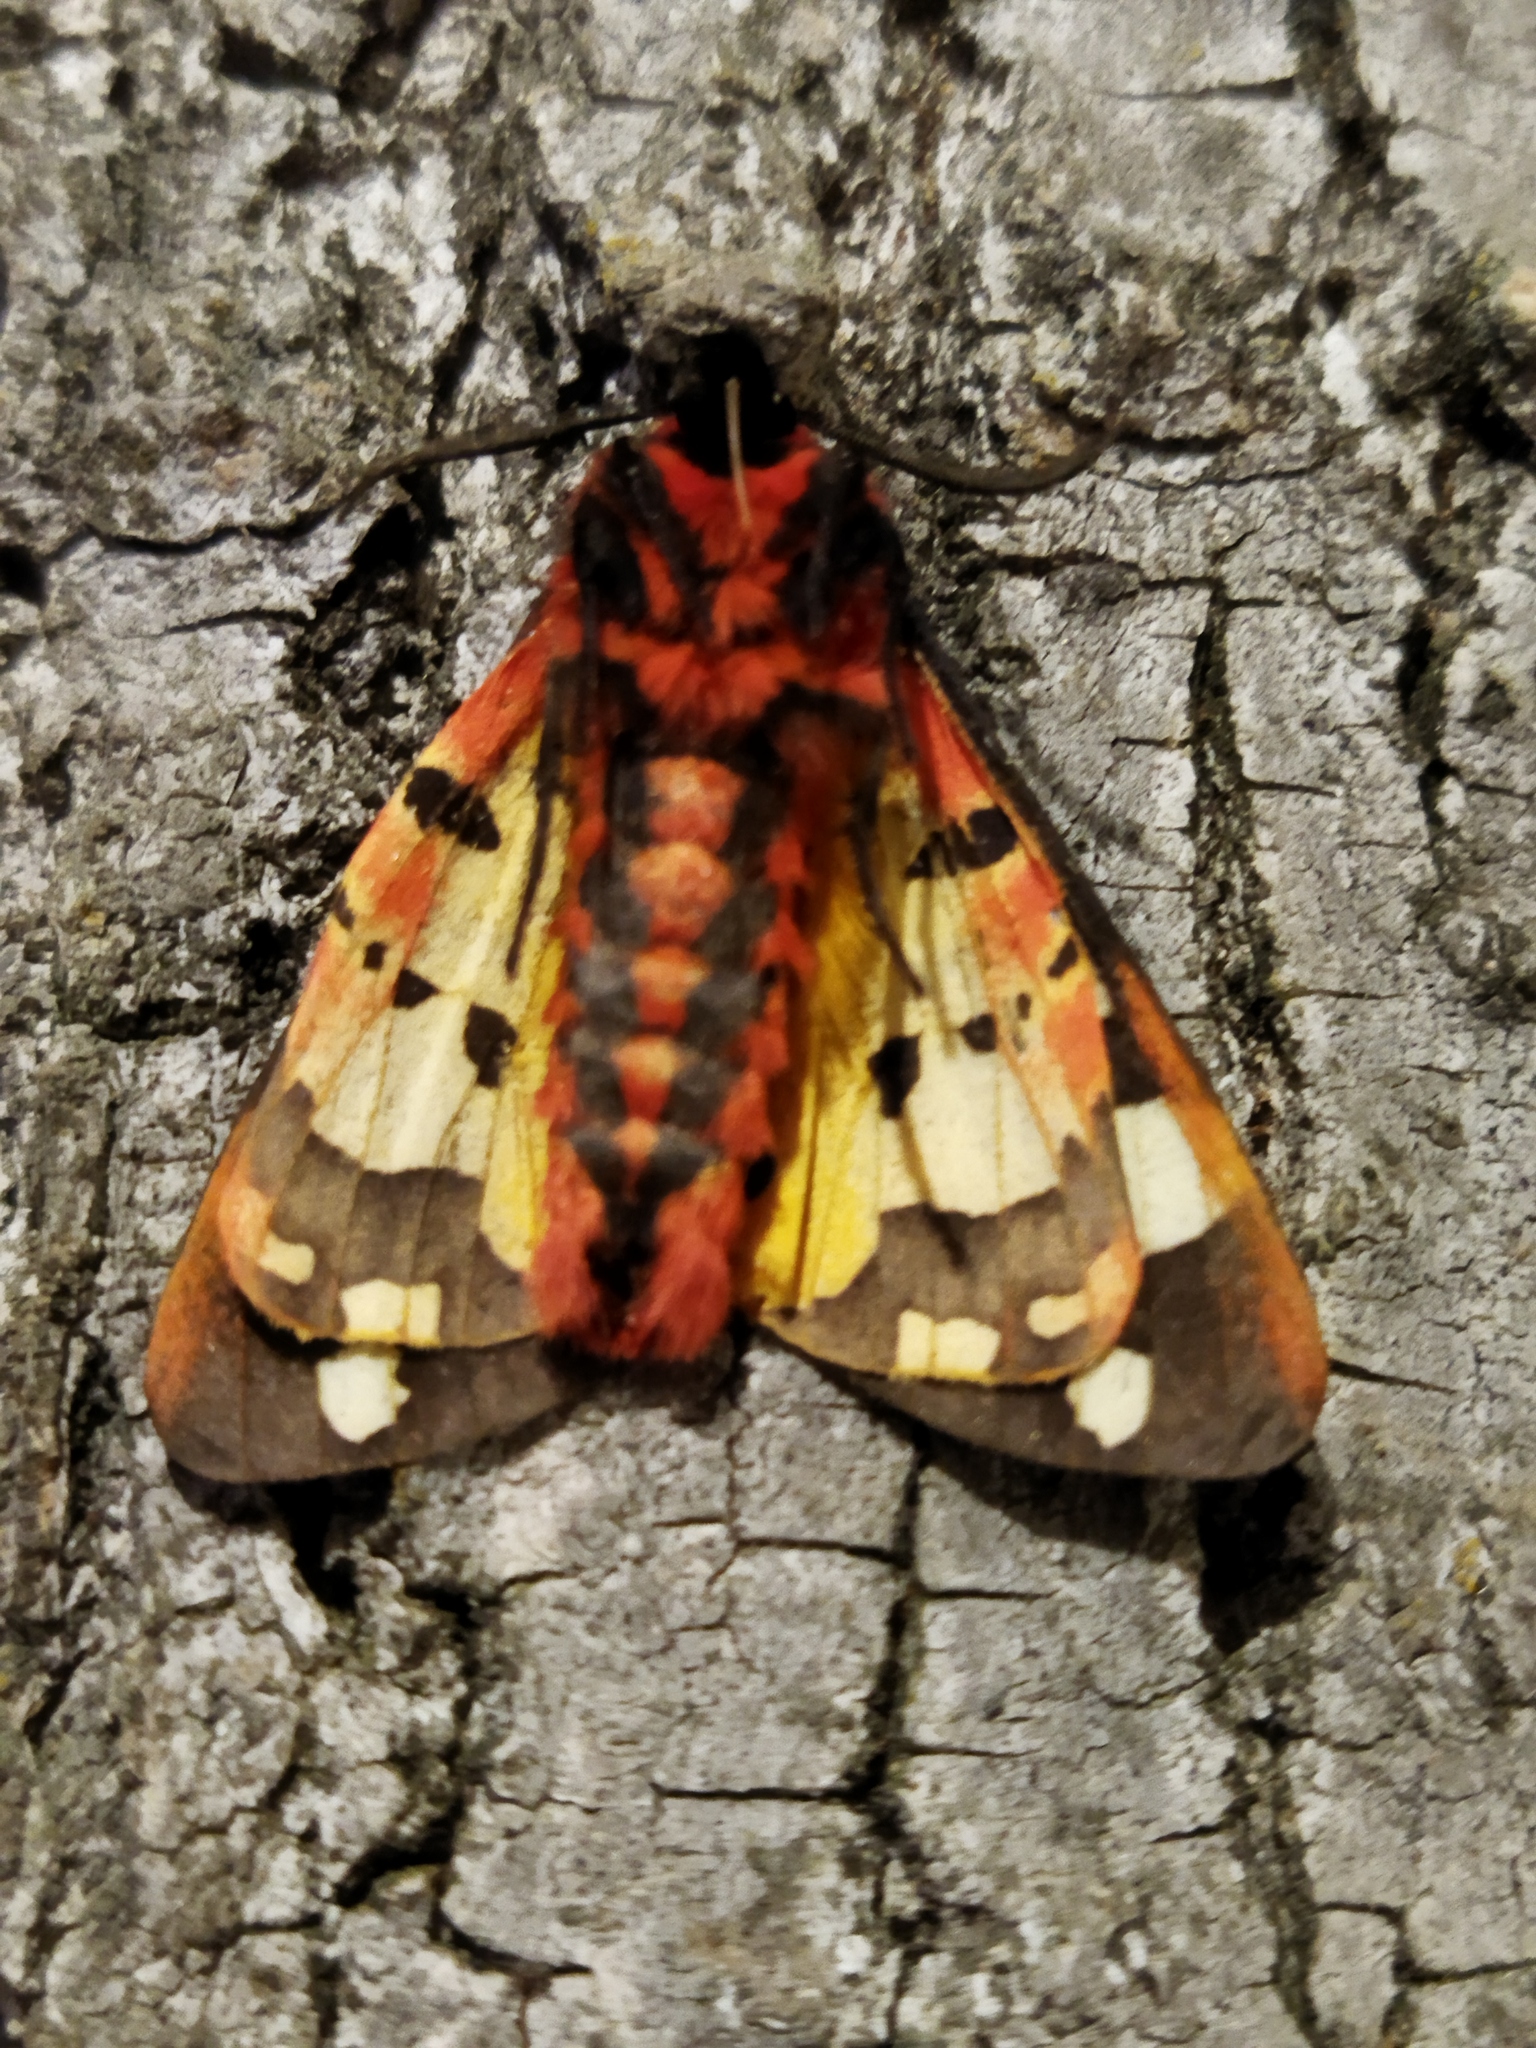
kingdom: Animalia
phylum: Arthropoda
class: Insecta
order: Lepidoptera
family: Erebidae
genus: Epicallia
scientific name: Epicallia villica
